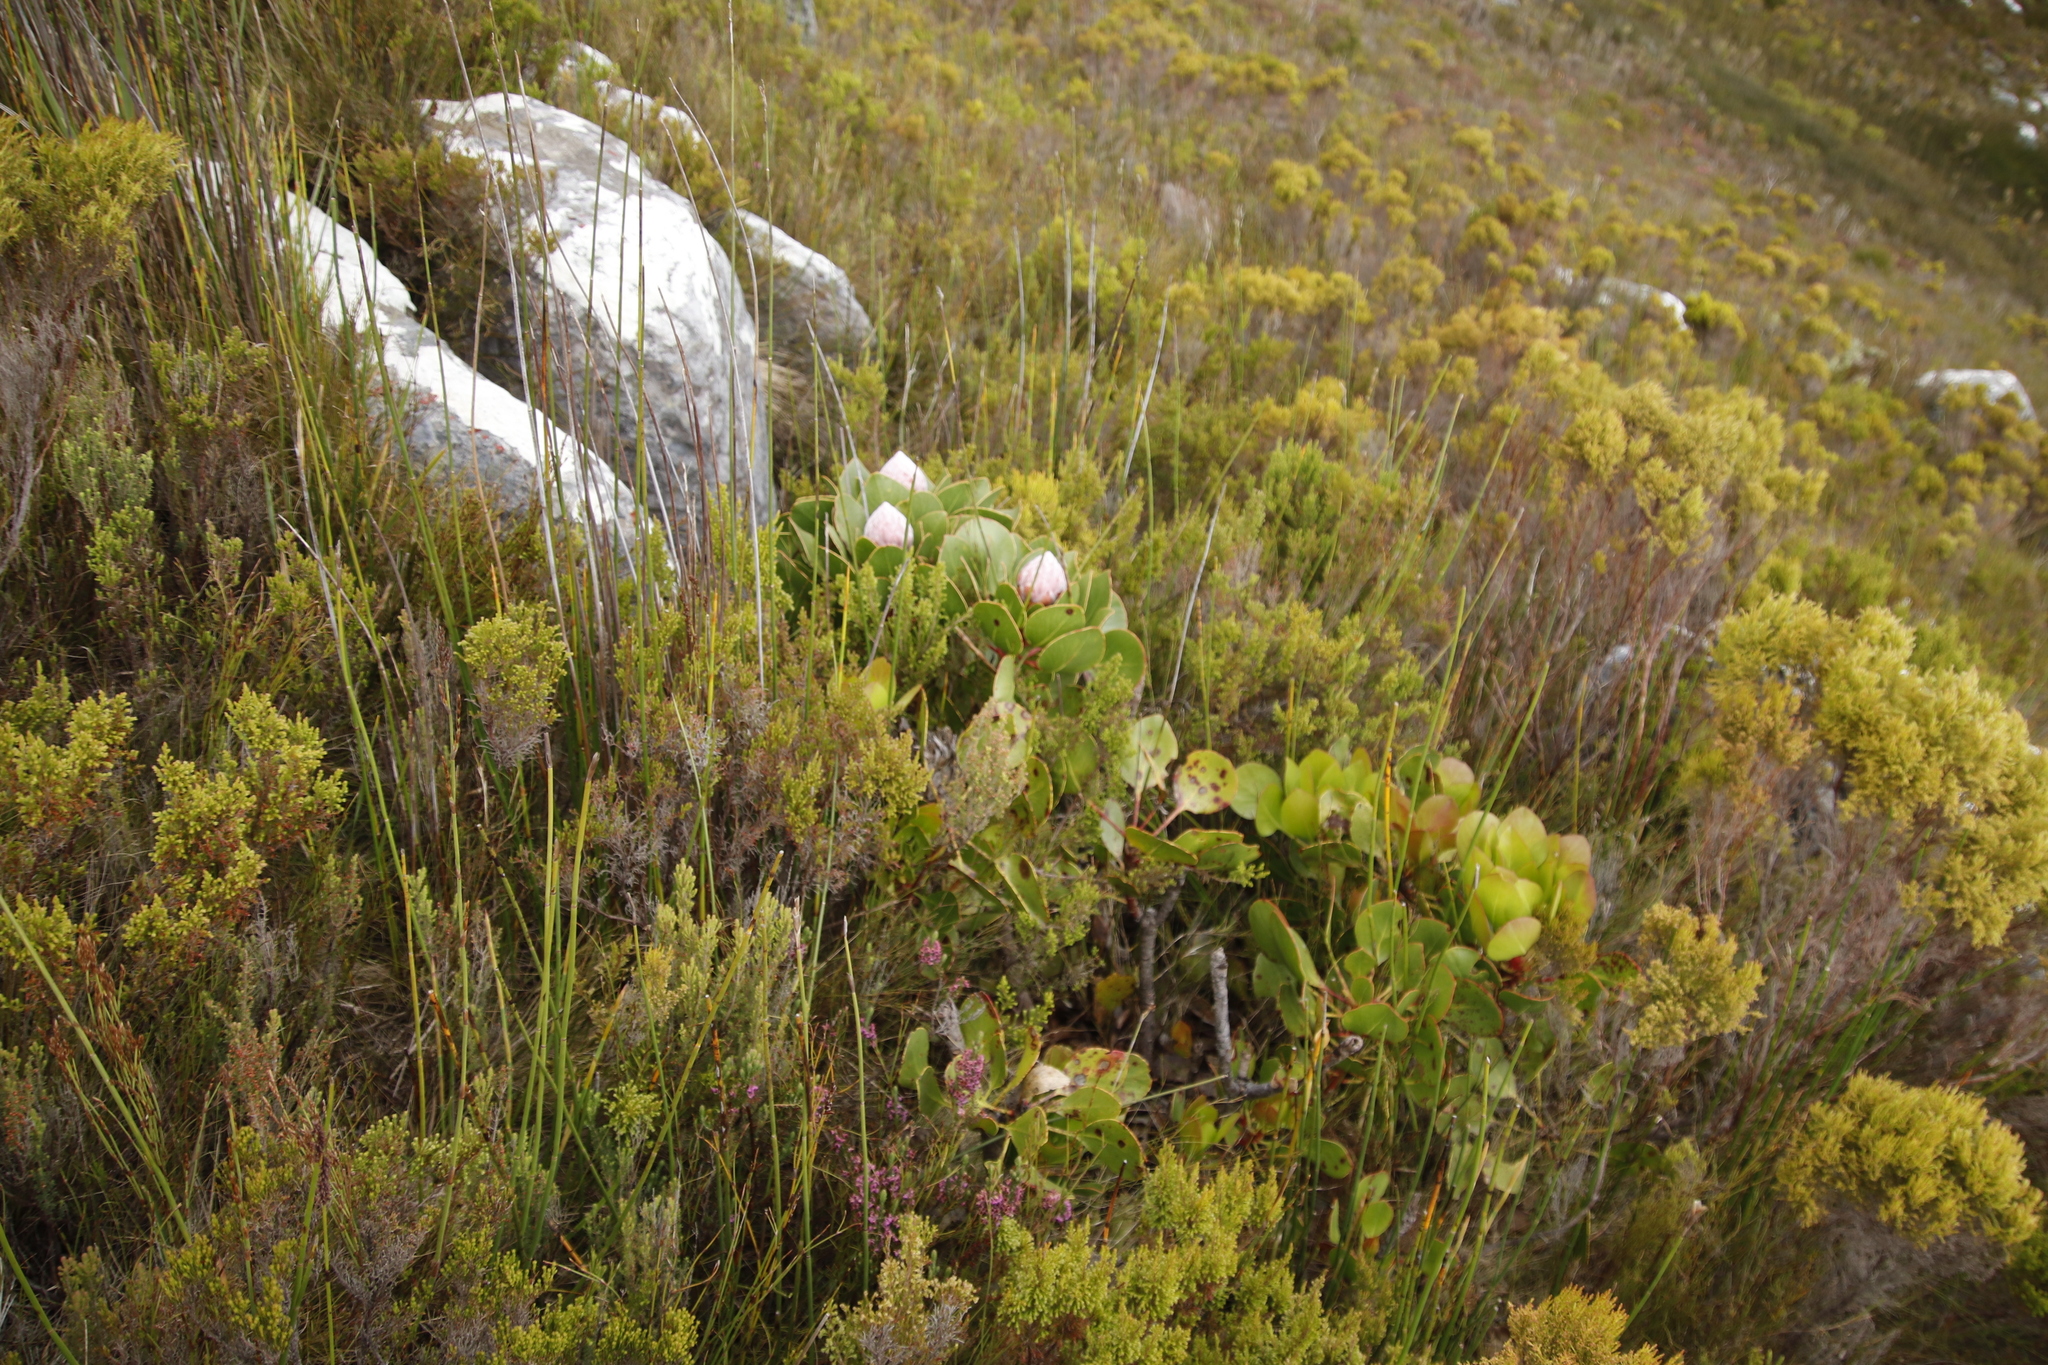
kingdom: Plantae
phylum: Tracheophyta
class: Magnoliopsida
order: Proteales
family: Proteaceae
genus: Protea
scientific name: Protea cynaroides
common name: King protea
